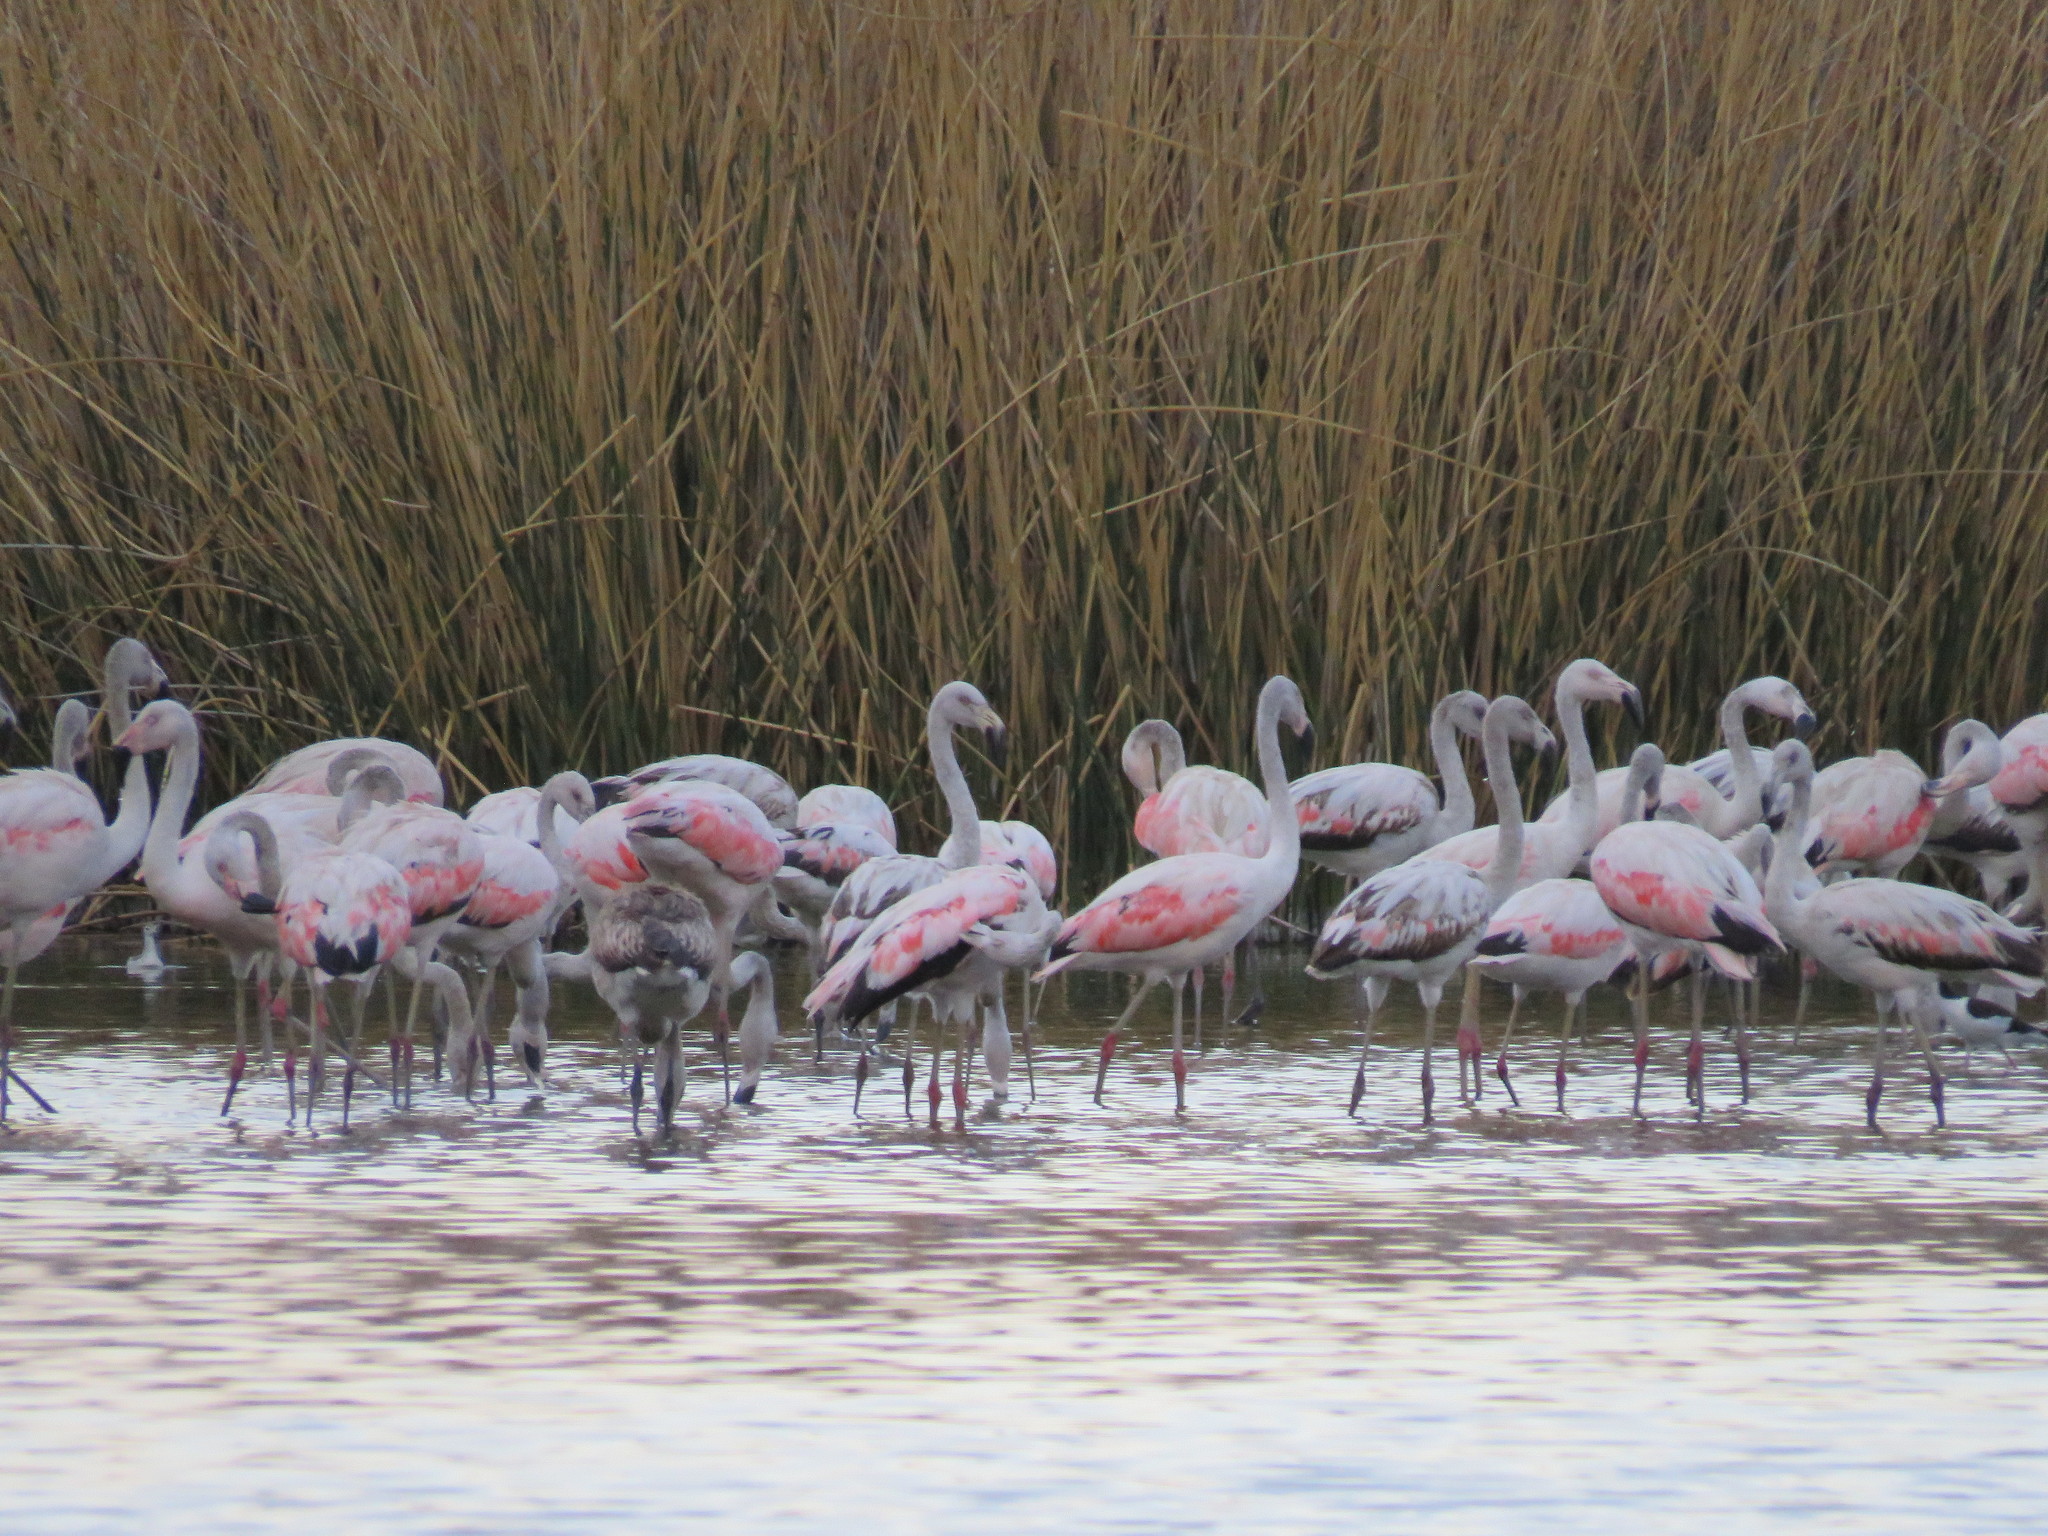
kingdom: Animalia
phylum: Chordata
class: Aves
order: Phoenicopteriformes
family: Phoenicopteridae
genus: Phoenicopterus
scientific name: Phoenicopterus chilensis
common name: Chilean flamingo
